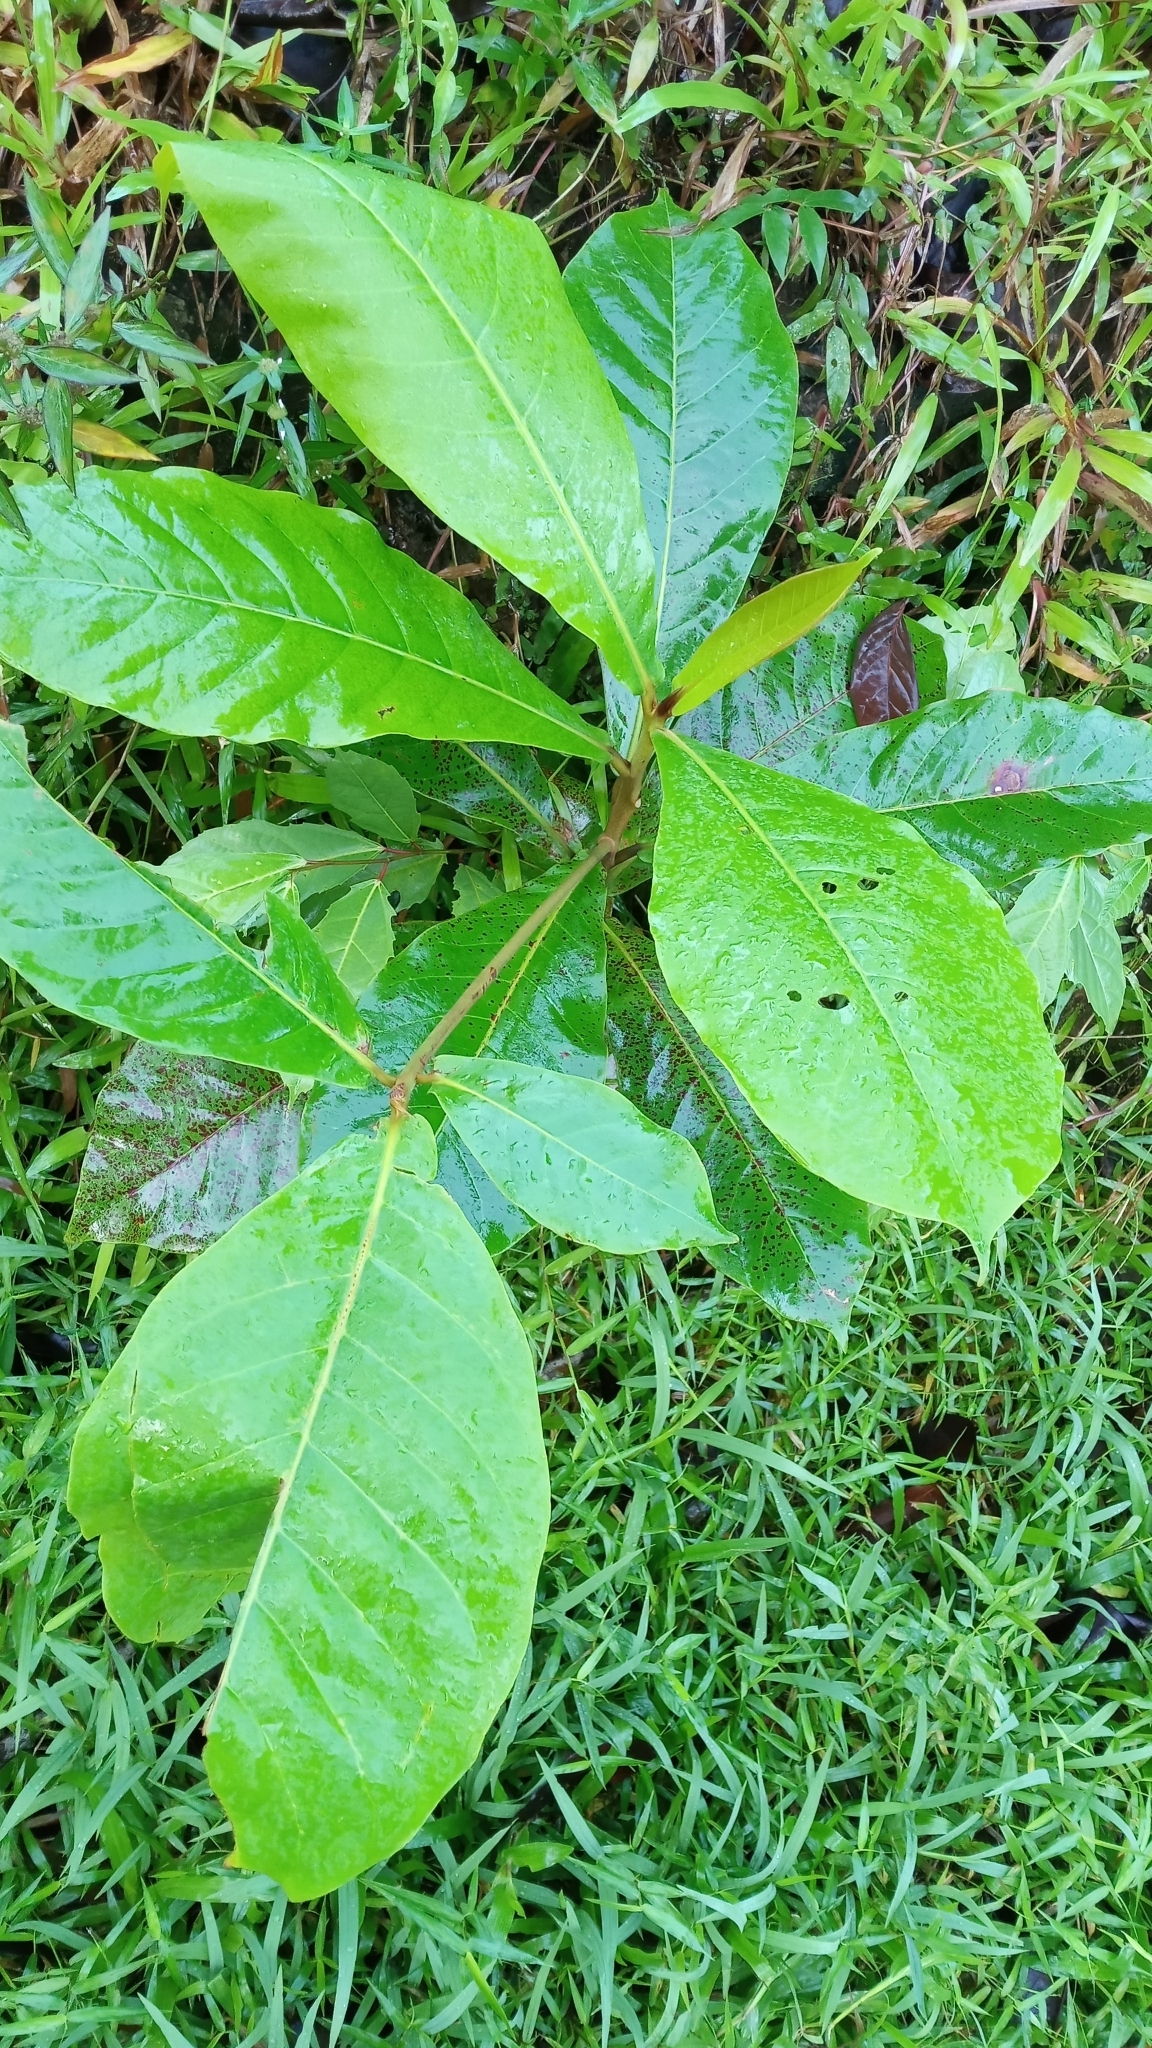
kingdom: Plantae
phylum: Tracheophyta
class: Magnoliopsida
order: Myrtales
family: Combretaceae
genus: Terminalia
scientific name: Terminalia catappa
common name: Tropical almond
